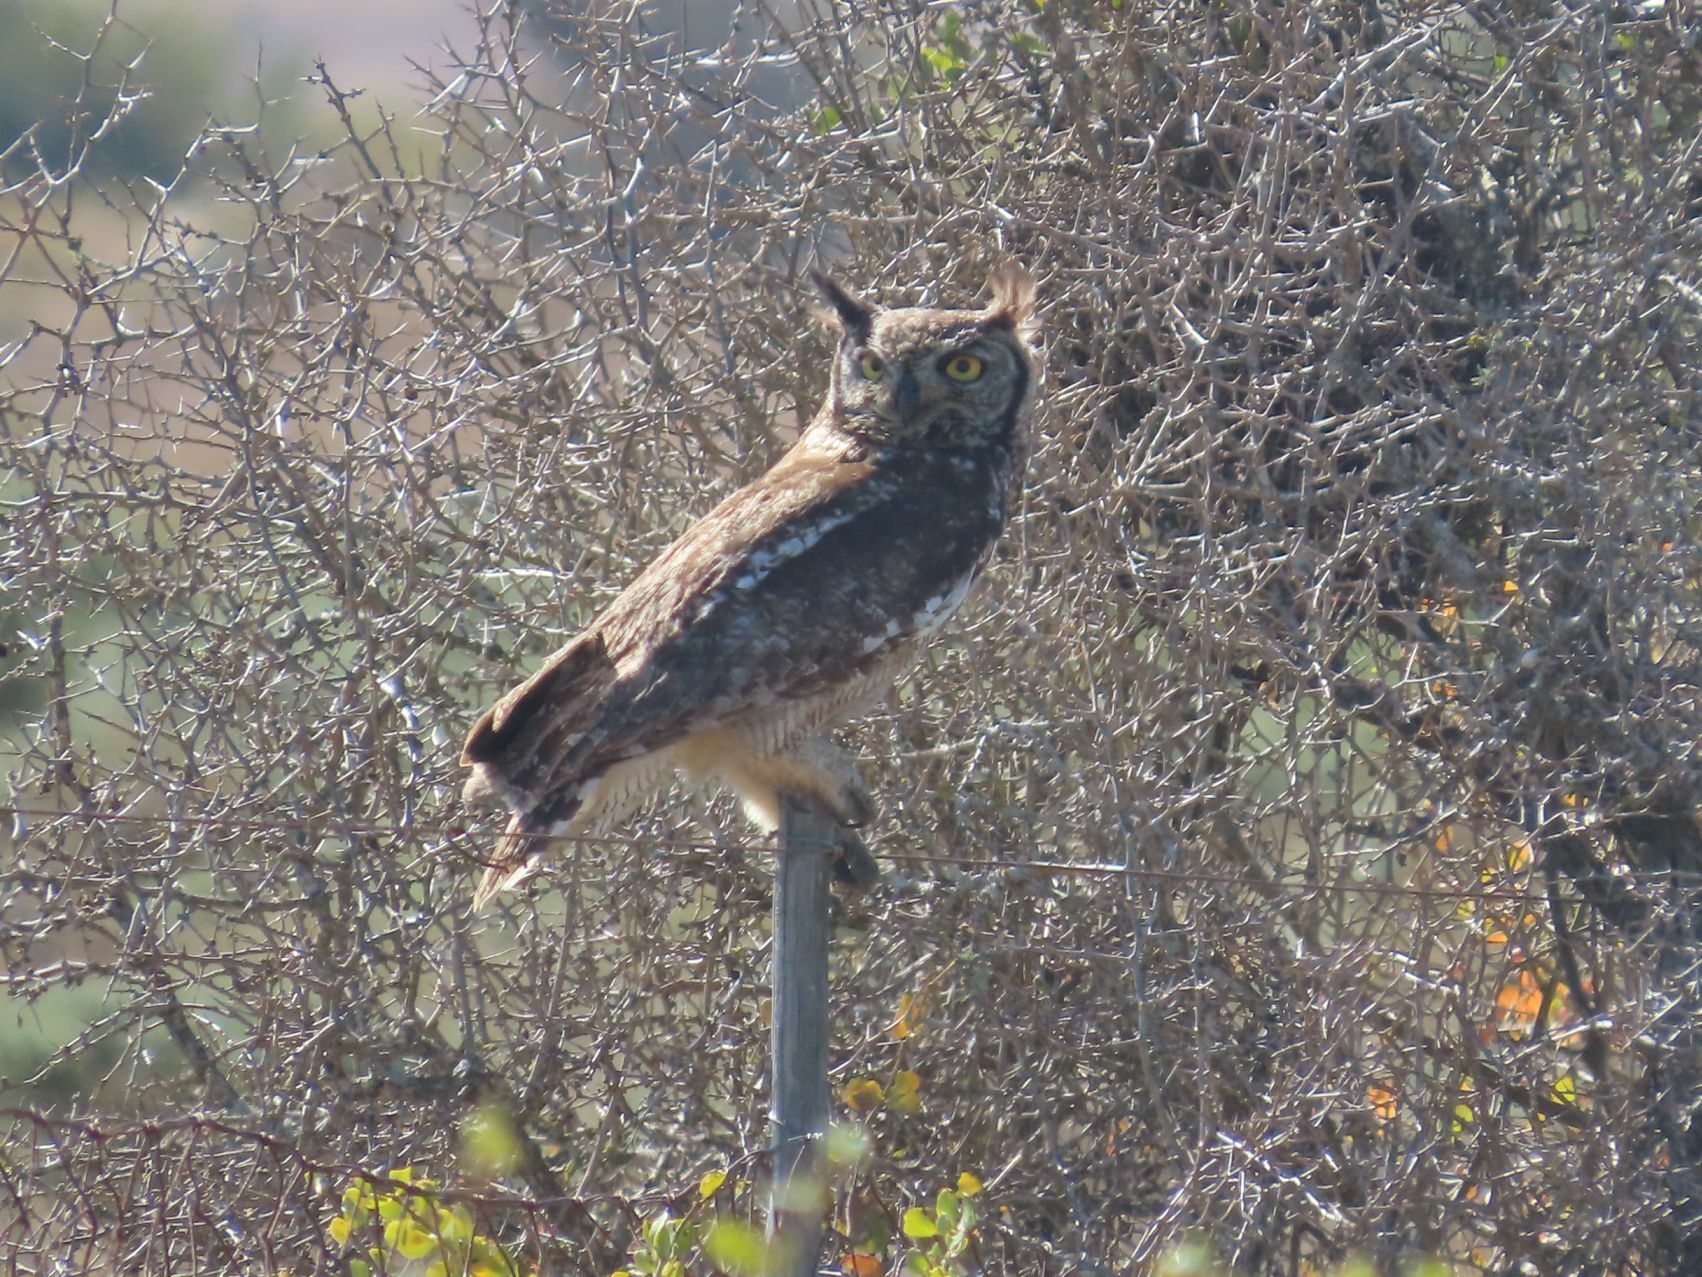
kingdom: Animalia
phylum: Chordata
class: Aves
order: Strigiformes
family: Strigidae
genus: Bubo
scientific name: Bubo africanus
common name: Spotted eagle-owl
